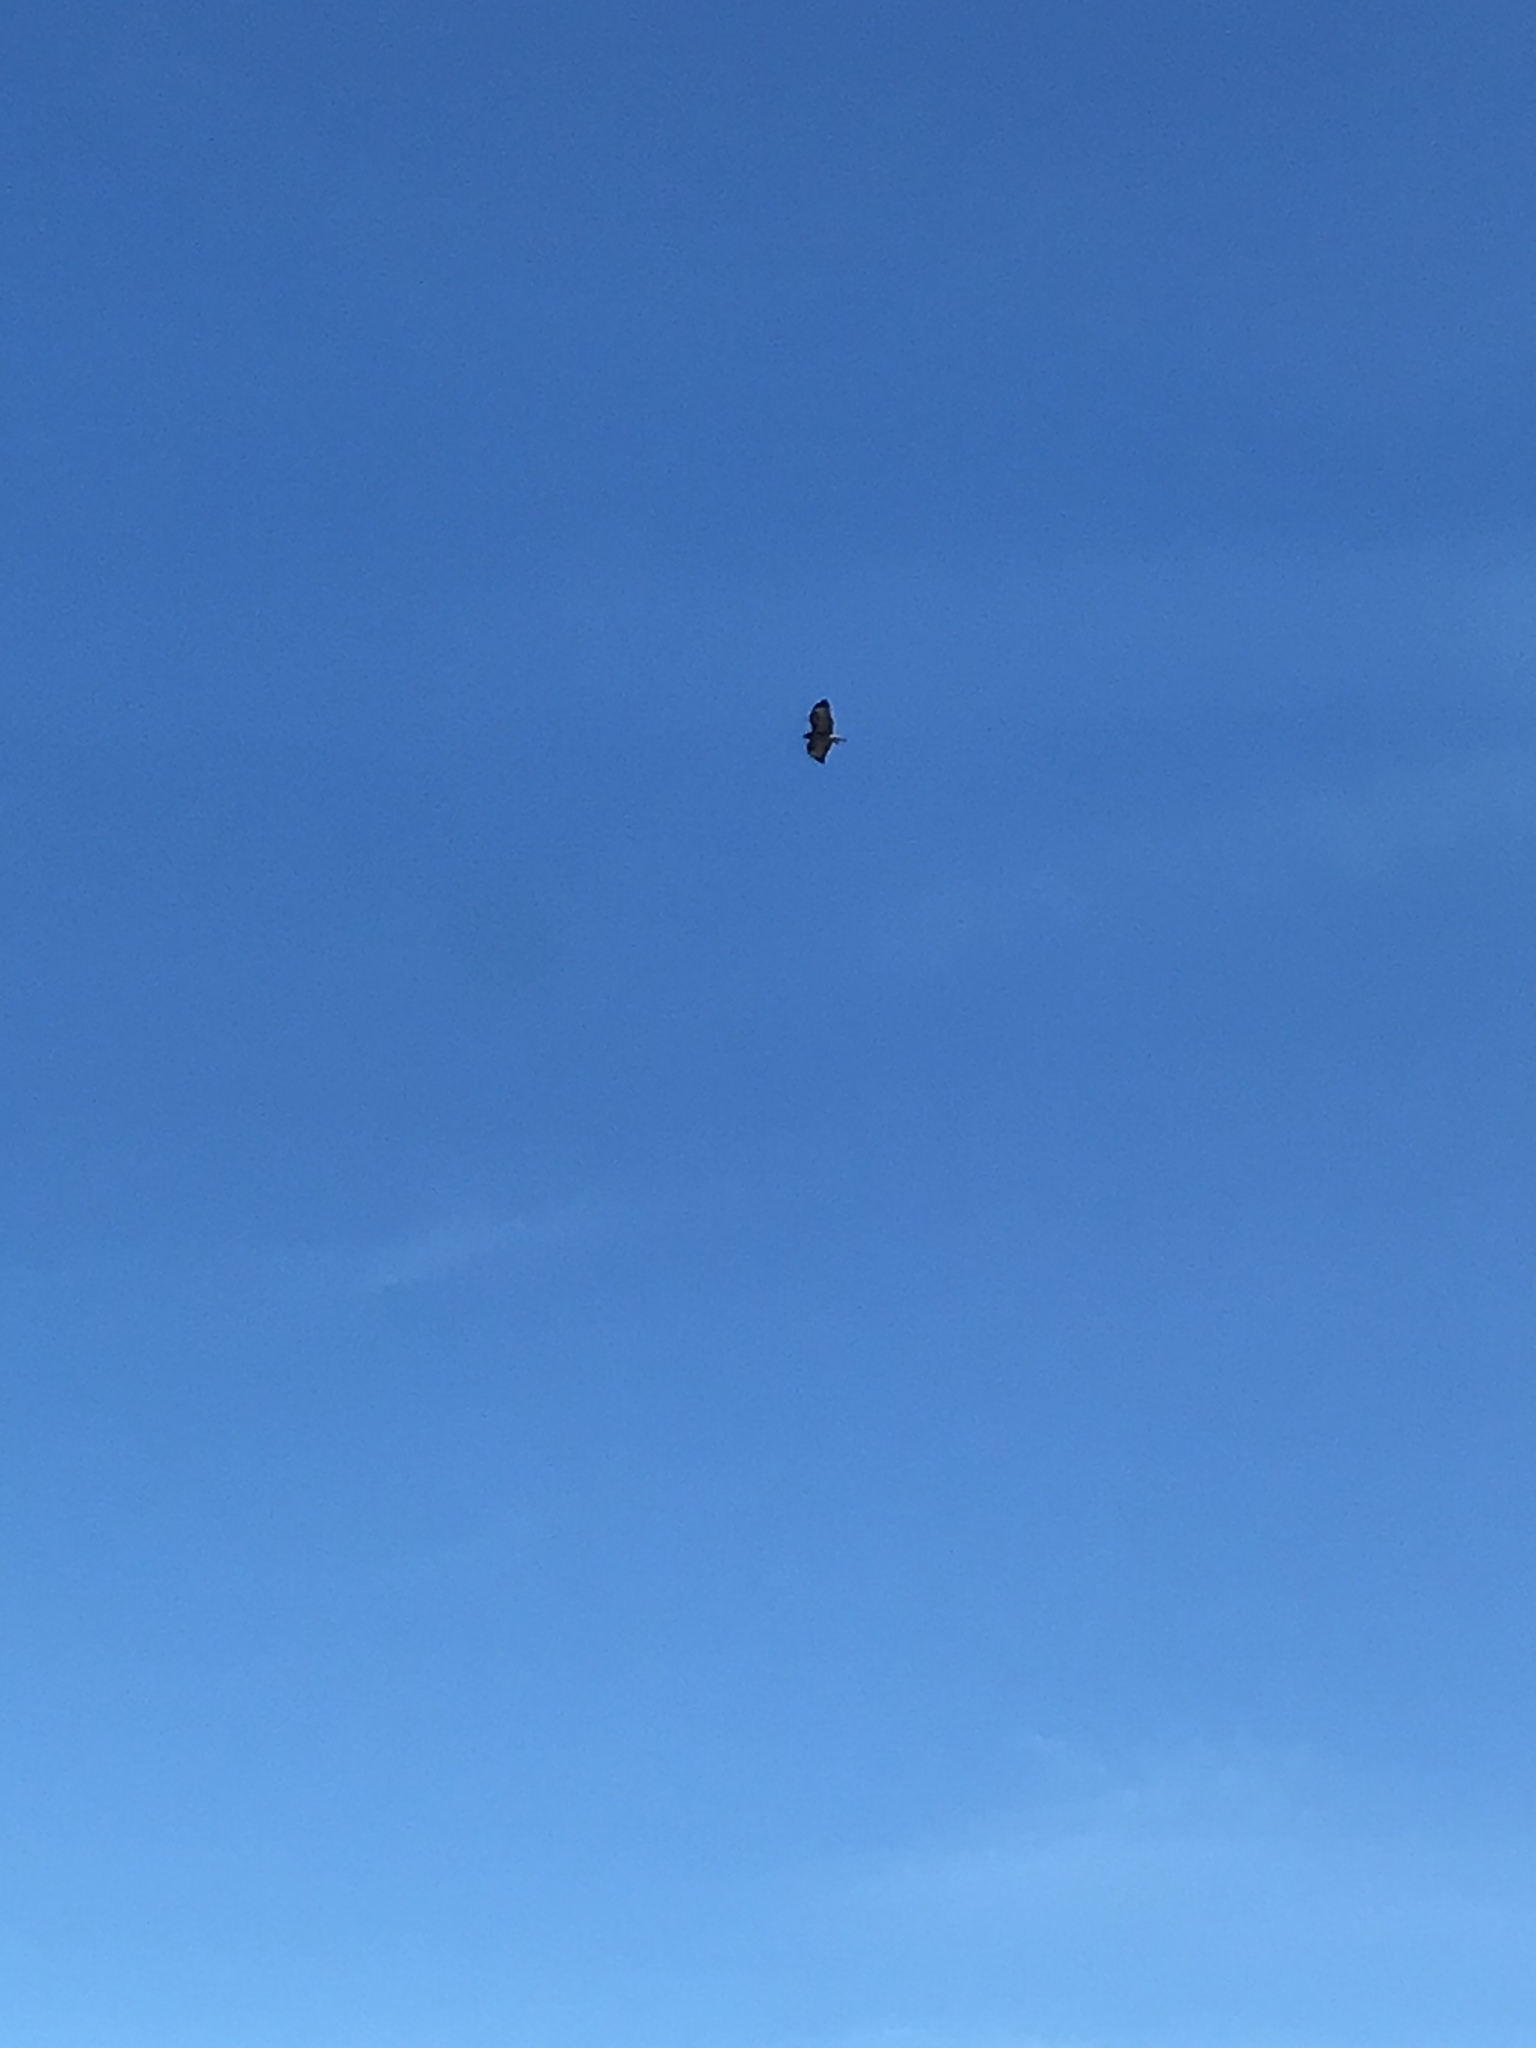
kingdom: Animalia
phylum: Chordata
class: Aves
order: Accipitriformes
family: Accipitridae
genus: Buteo
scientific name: Buteo buteo
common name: Common buzzard
